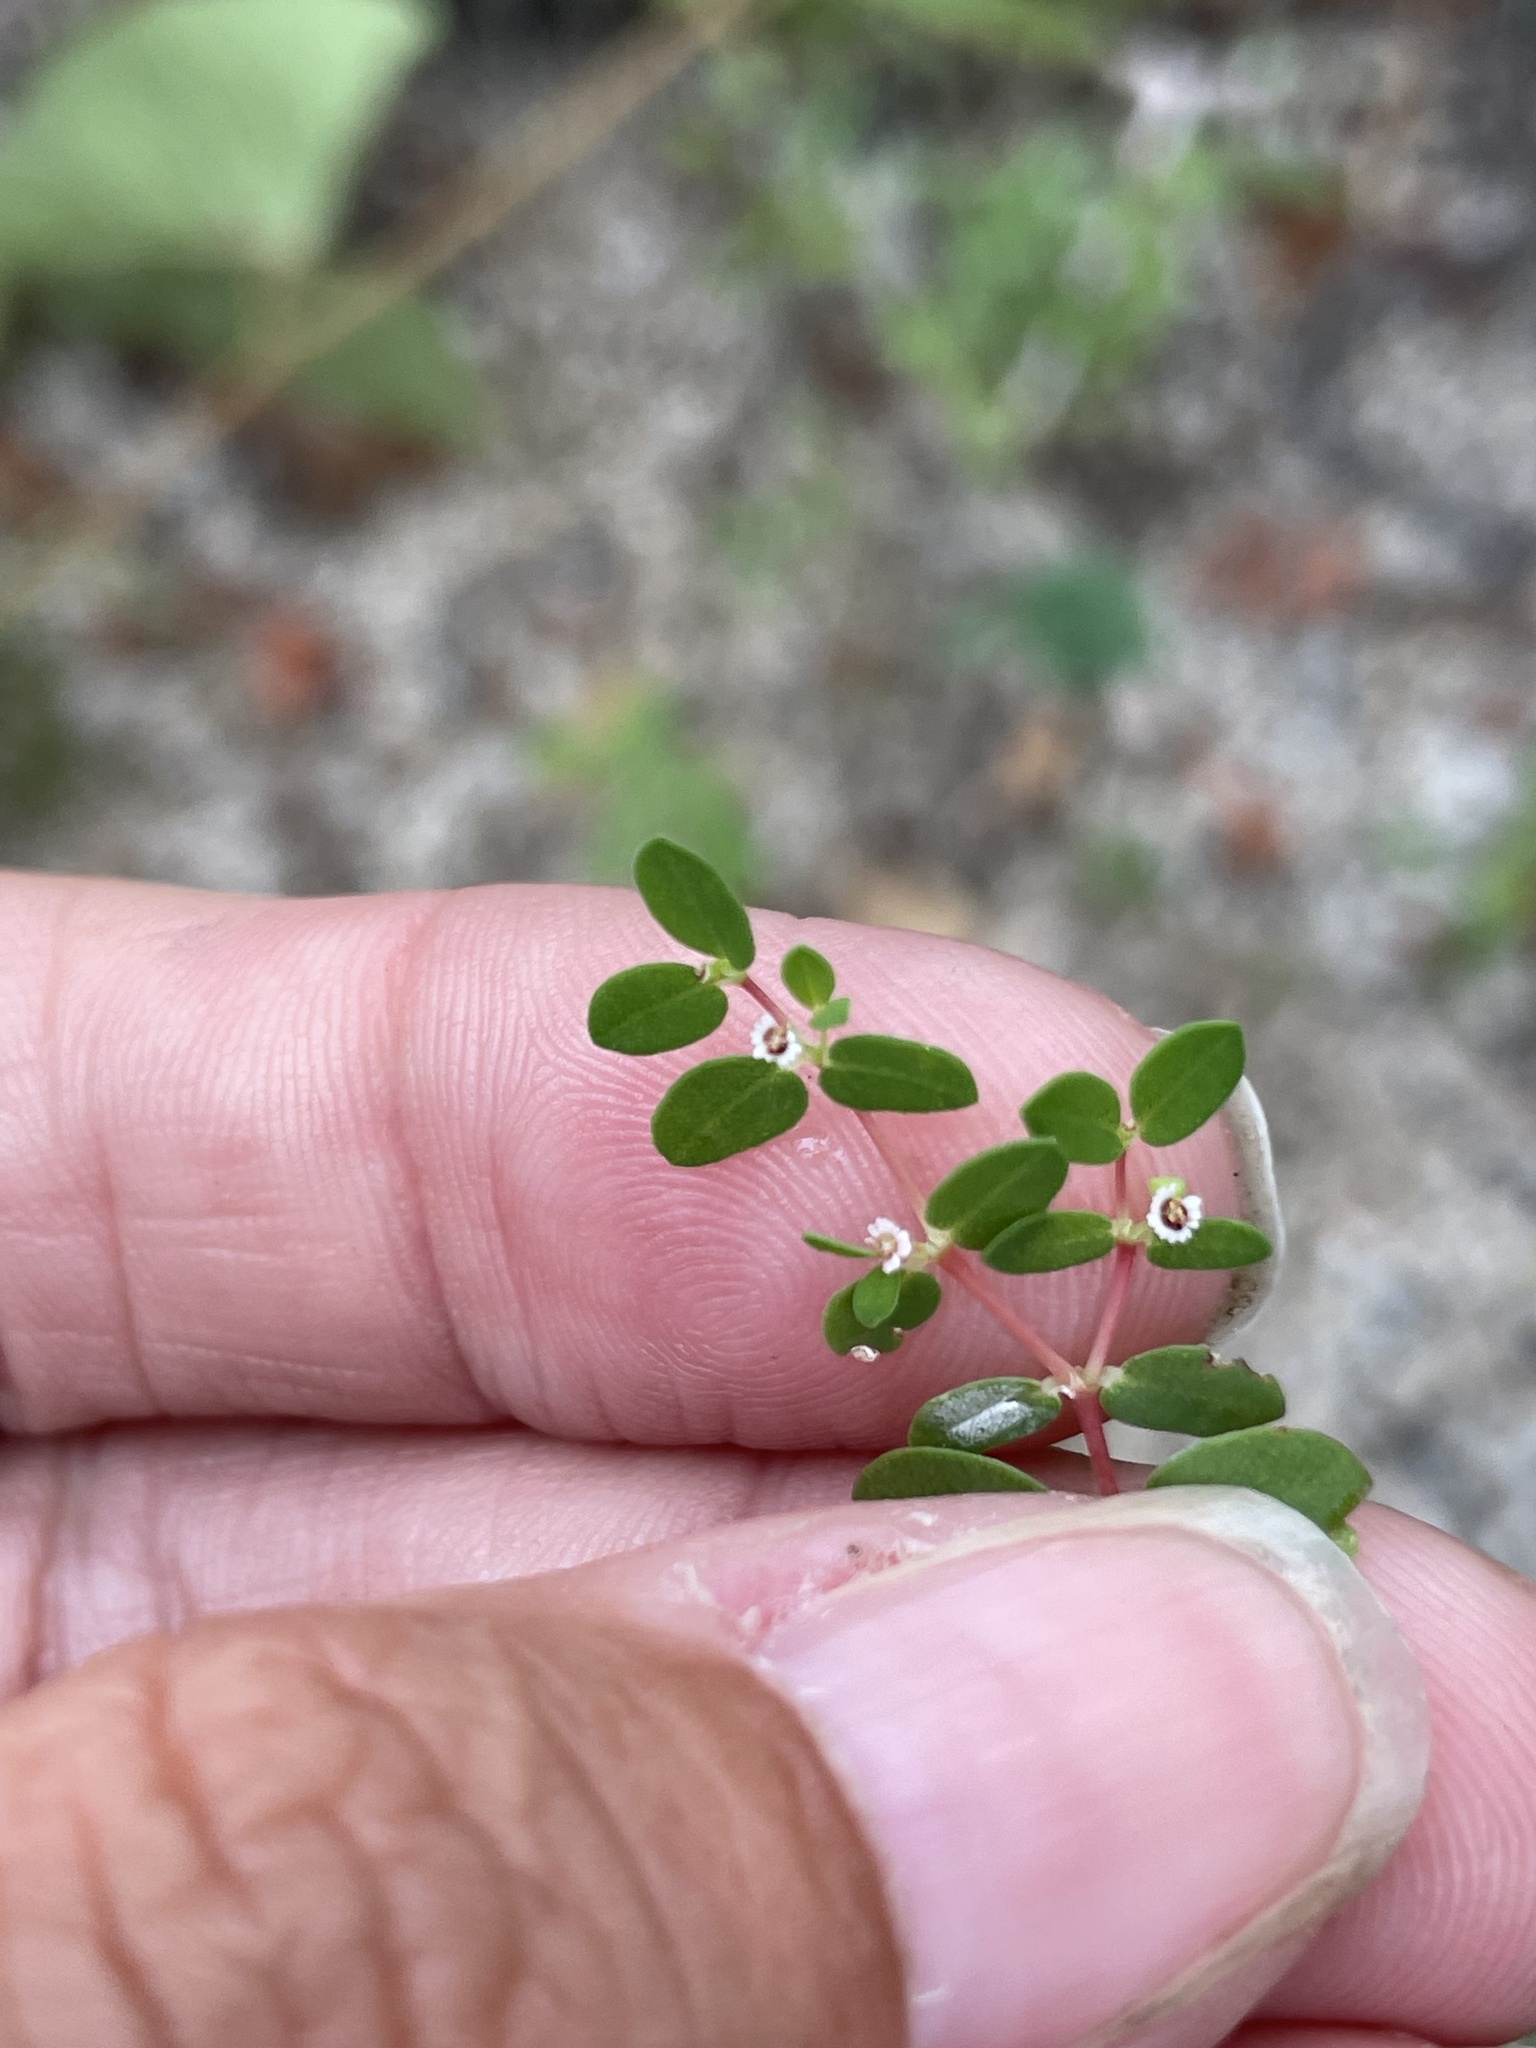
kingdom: Plantae
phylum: Tracheophyta
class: Magnoliopsida
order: Malpighiales
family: Euphorbiaceae
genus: Euphorbia
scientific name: Euphorbia polycarpa
